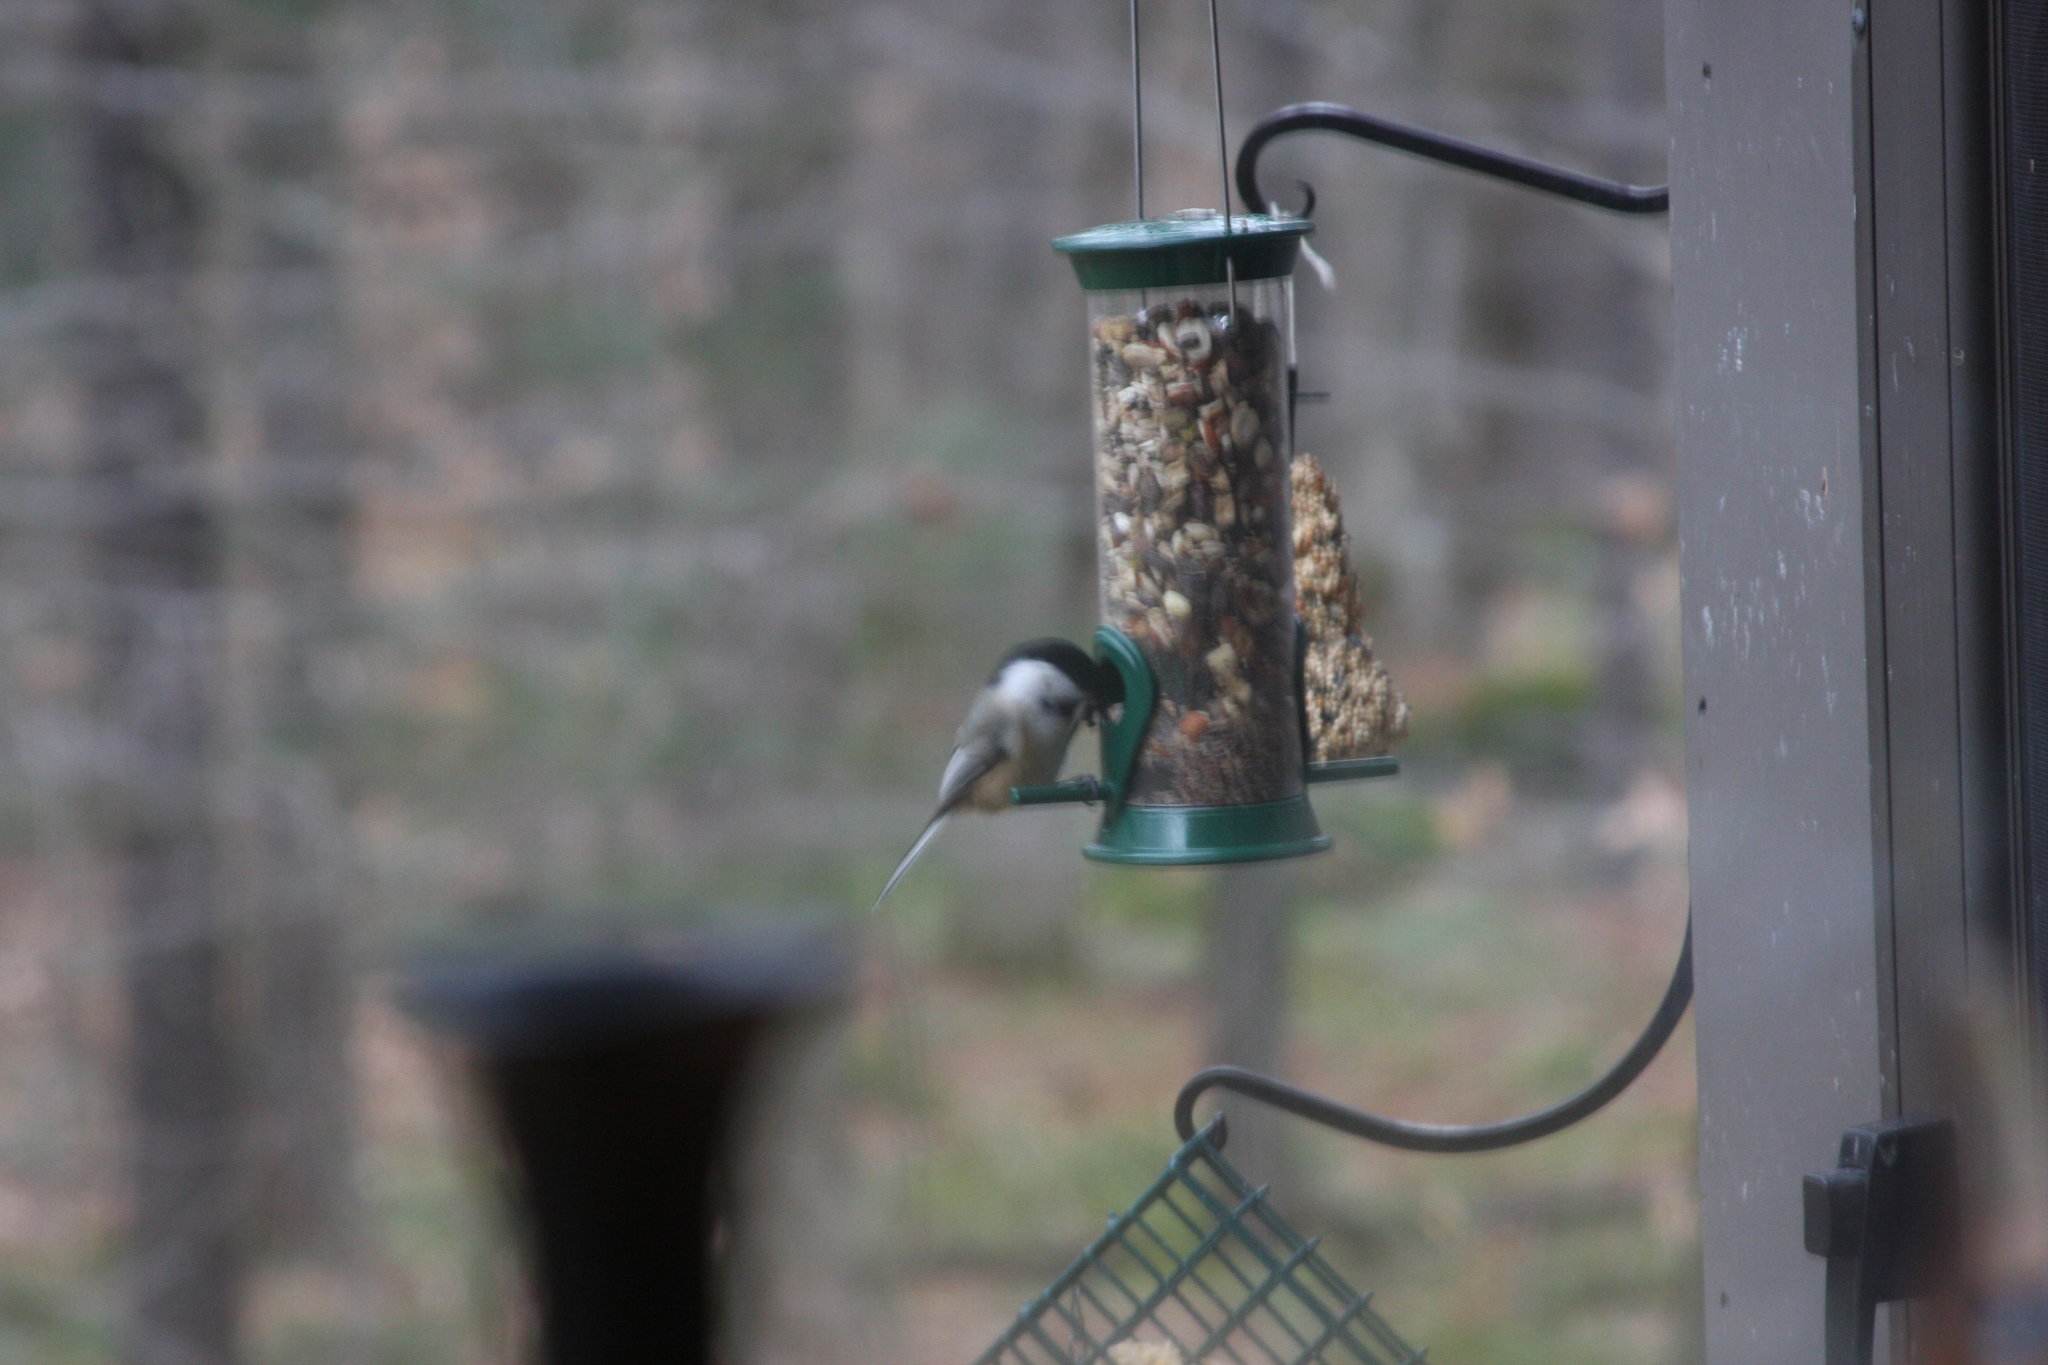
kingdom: Animalia
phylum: Chordata
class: Aves
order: Passeriformes
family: Paridae
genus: Poecile
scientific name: Poecile atricapillus
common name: Black-capped chickadee
